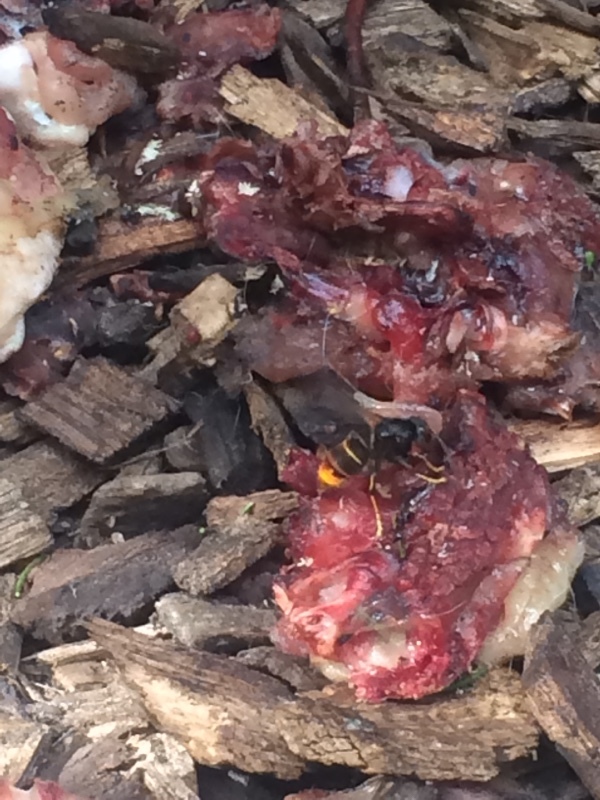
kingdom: Animalia
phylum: Arthropoda
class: Insecta
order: Hymenoptera
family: Vespidae
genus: Vespa
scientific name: Vespa velutina
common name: Asian hornet
